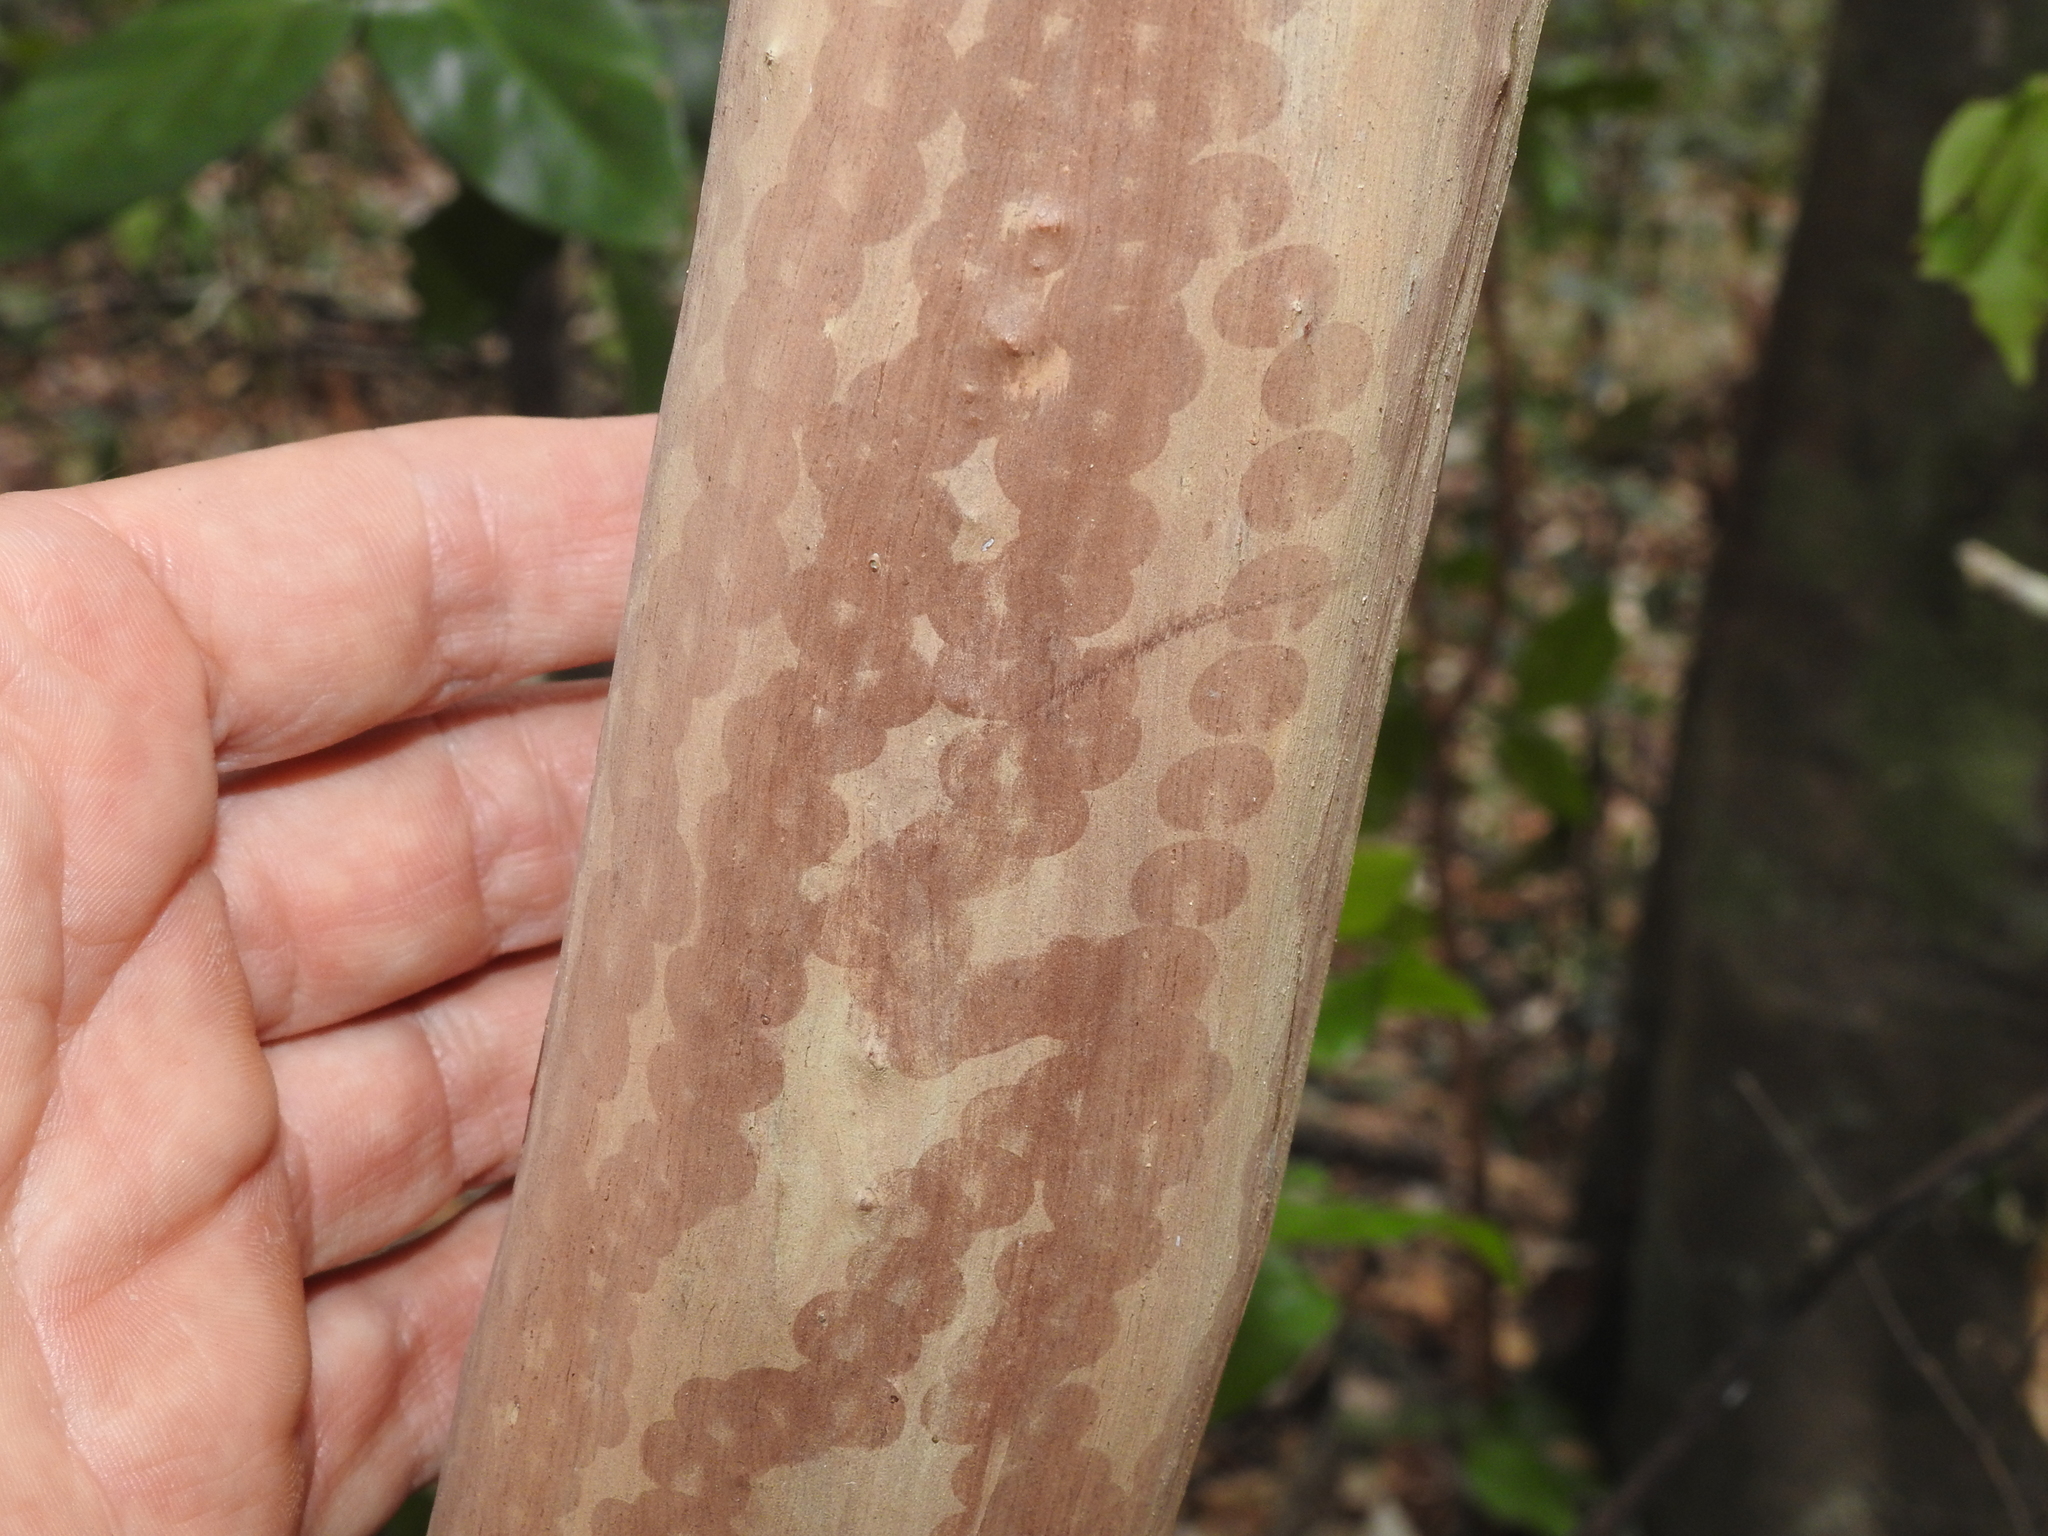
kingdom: Animalia
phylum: Mollusca
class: Gastropoda
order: Stylommatophora
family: Athoracophoridae
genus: Triboniophorus
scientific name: Triboniophorus graeffei
